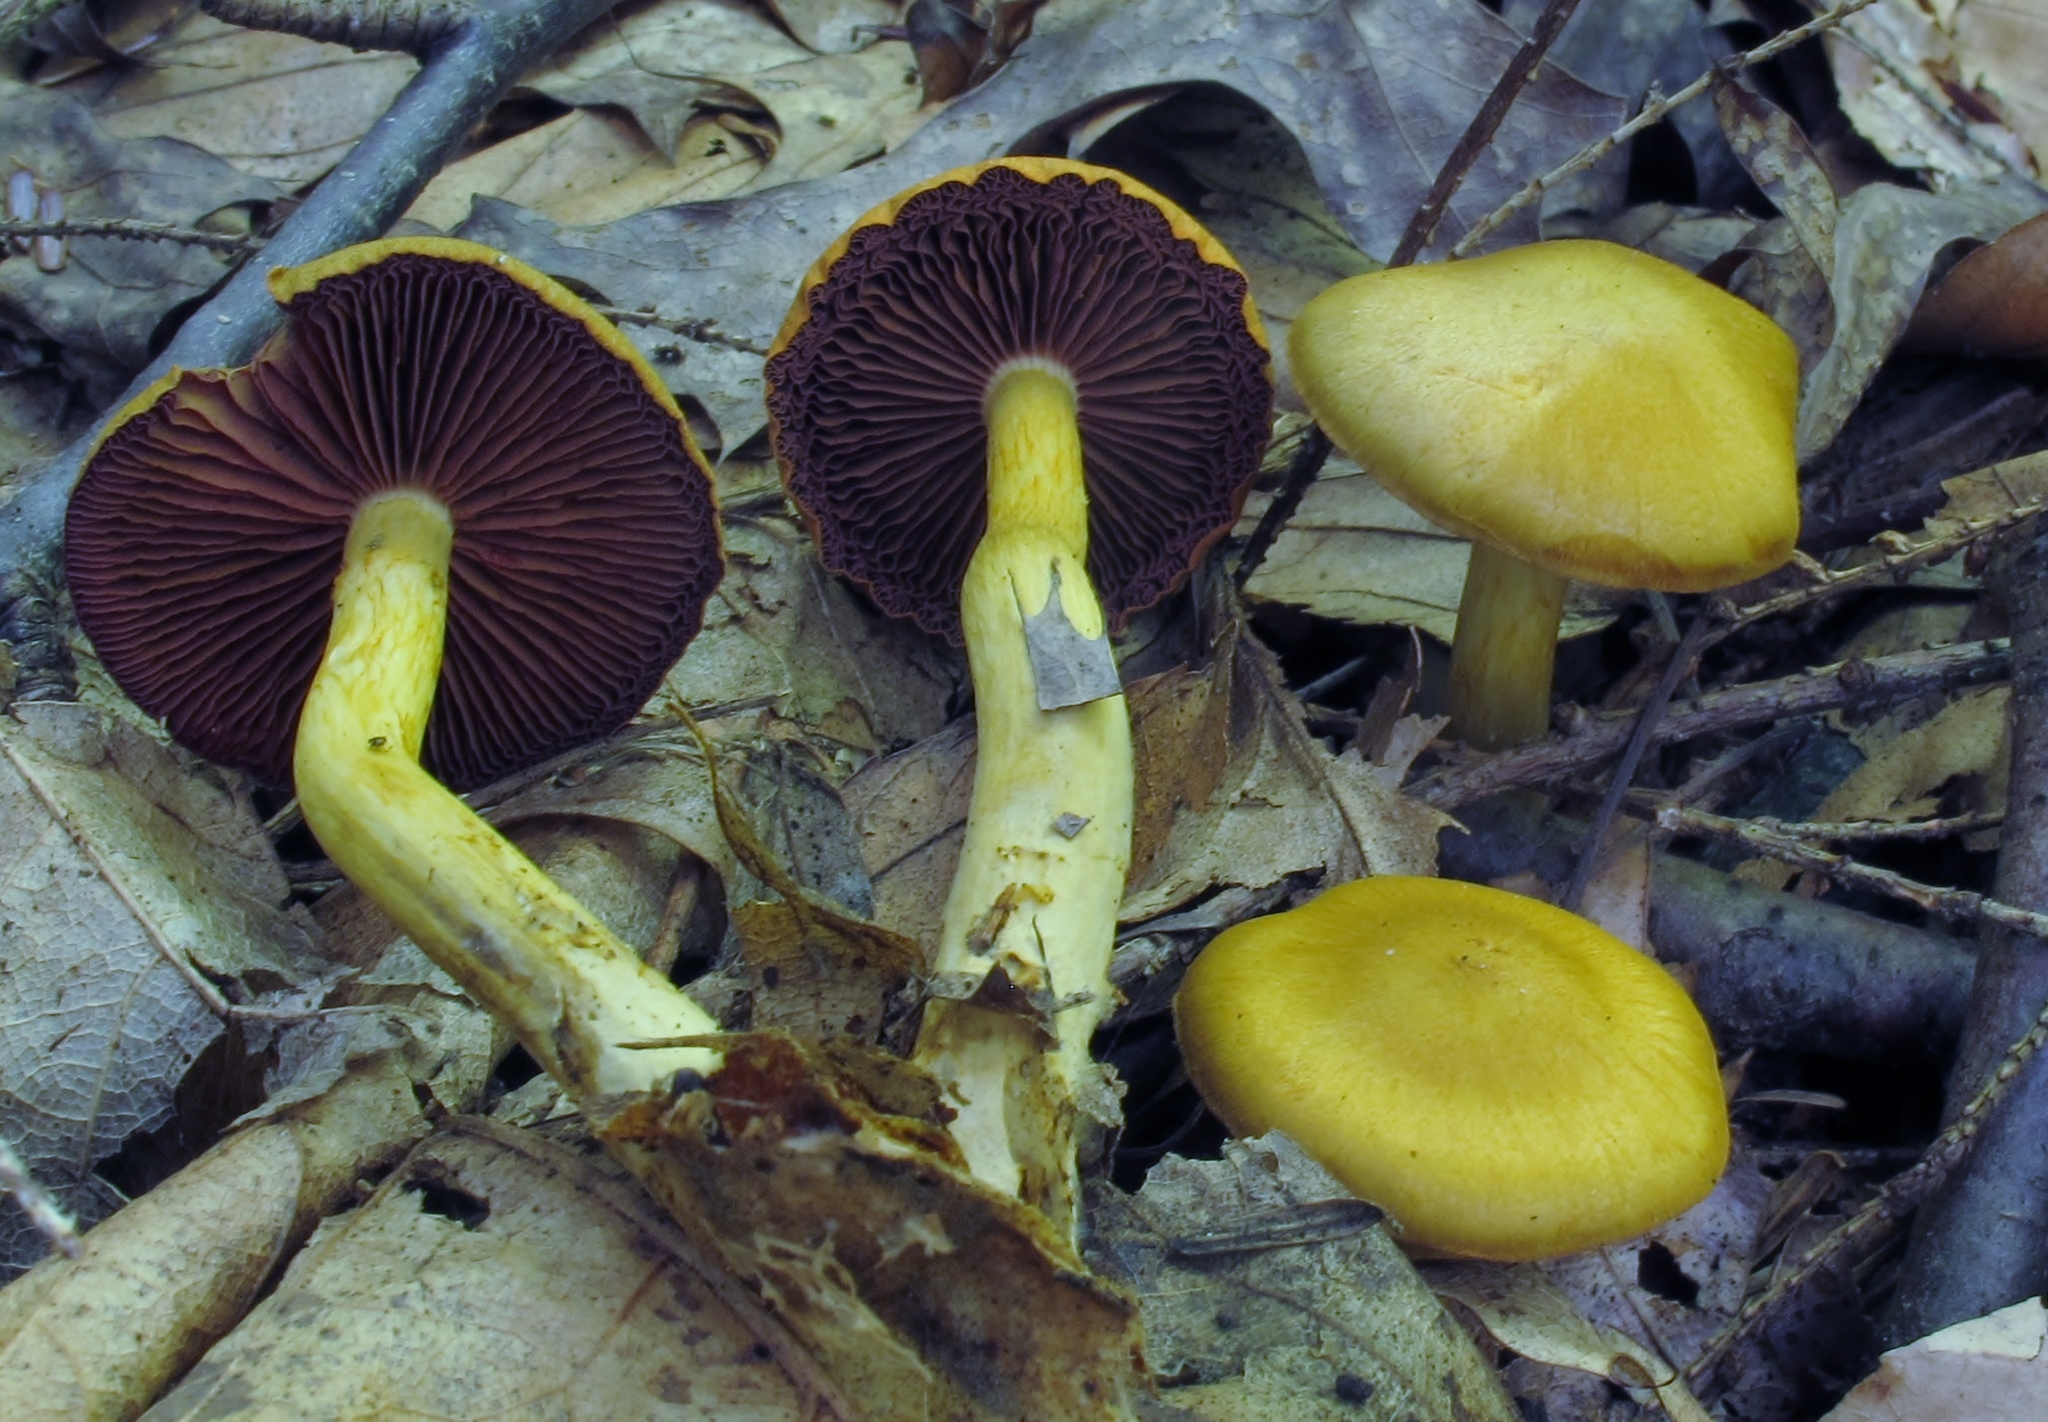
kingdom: Fungi
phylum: Basidiomycota
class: Agaricomycetes
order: Agaricales
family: Cortinariaceae
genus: Cortinarius
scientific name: Cortinarius semisanguineus
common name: Surprise webcap
